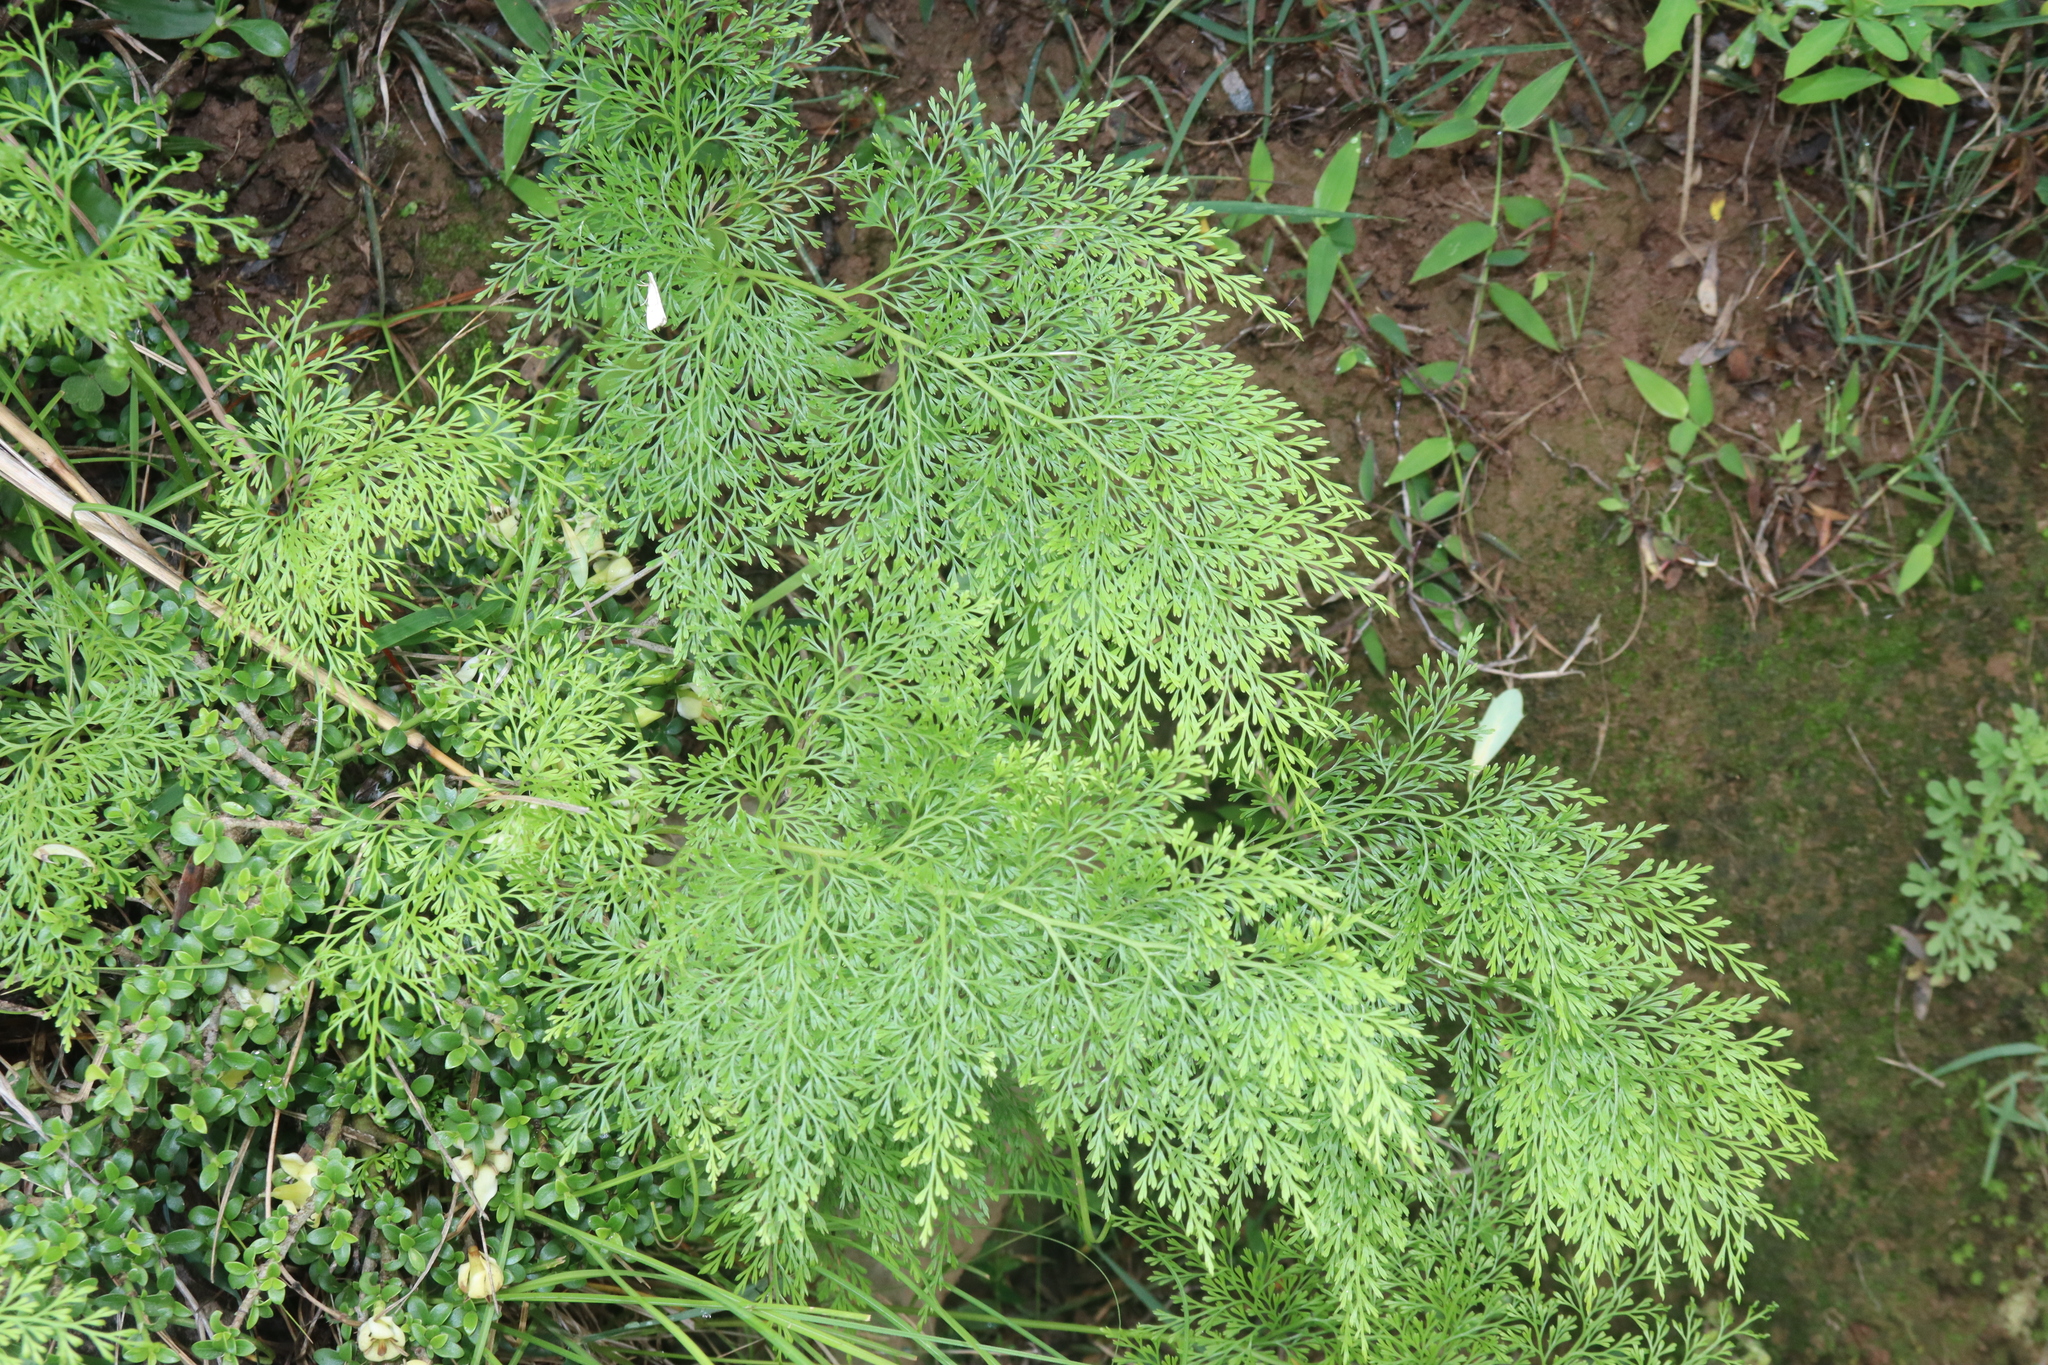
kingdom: Plantae
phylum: Tracheophyta
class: Polypodiopsida
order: Polypodiales
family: Pteridaceae
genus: Onychium
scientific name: Onychium cryptogrammoides
